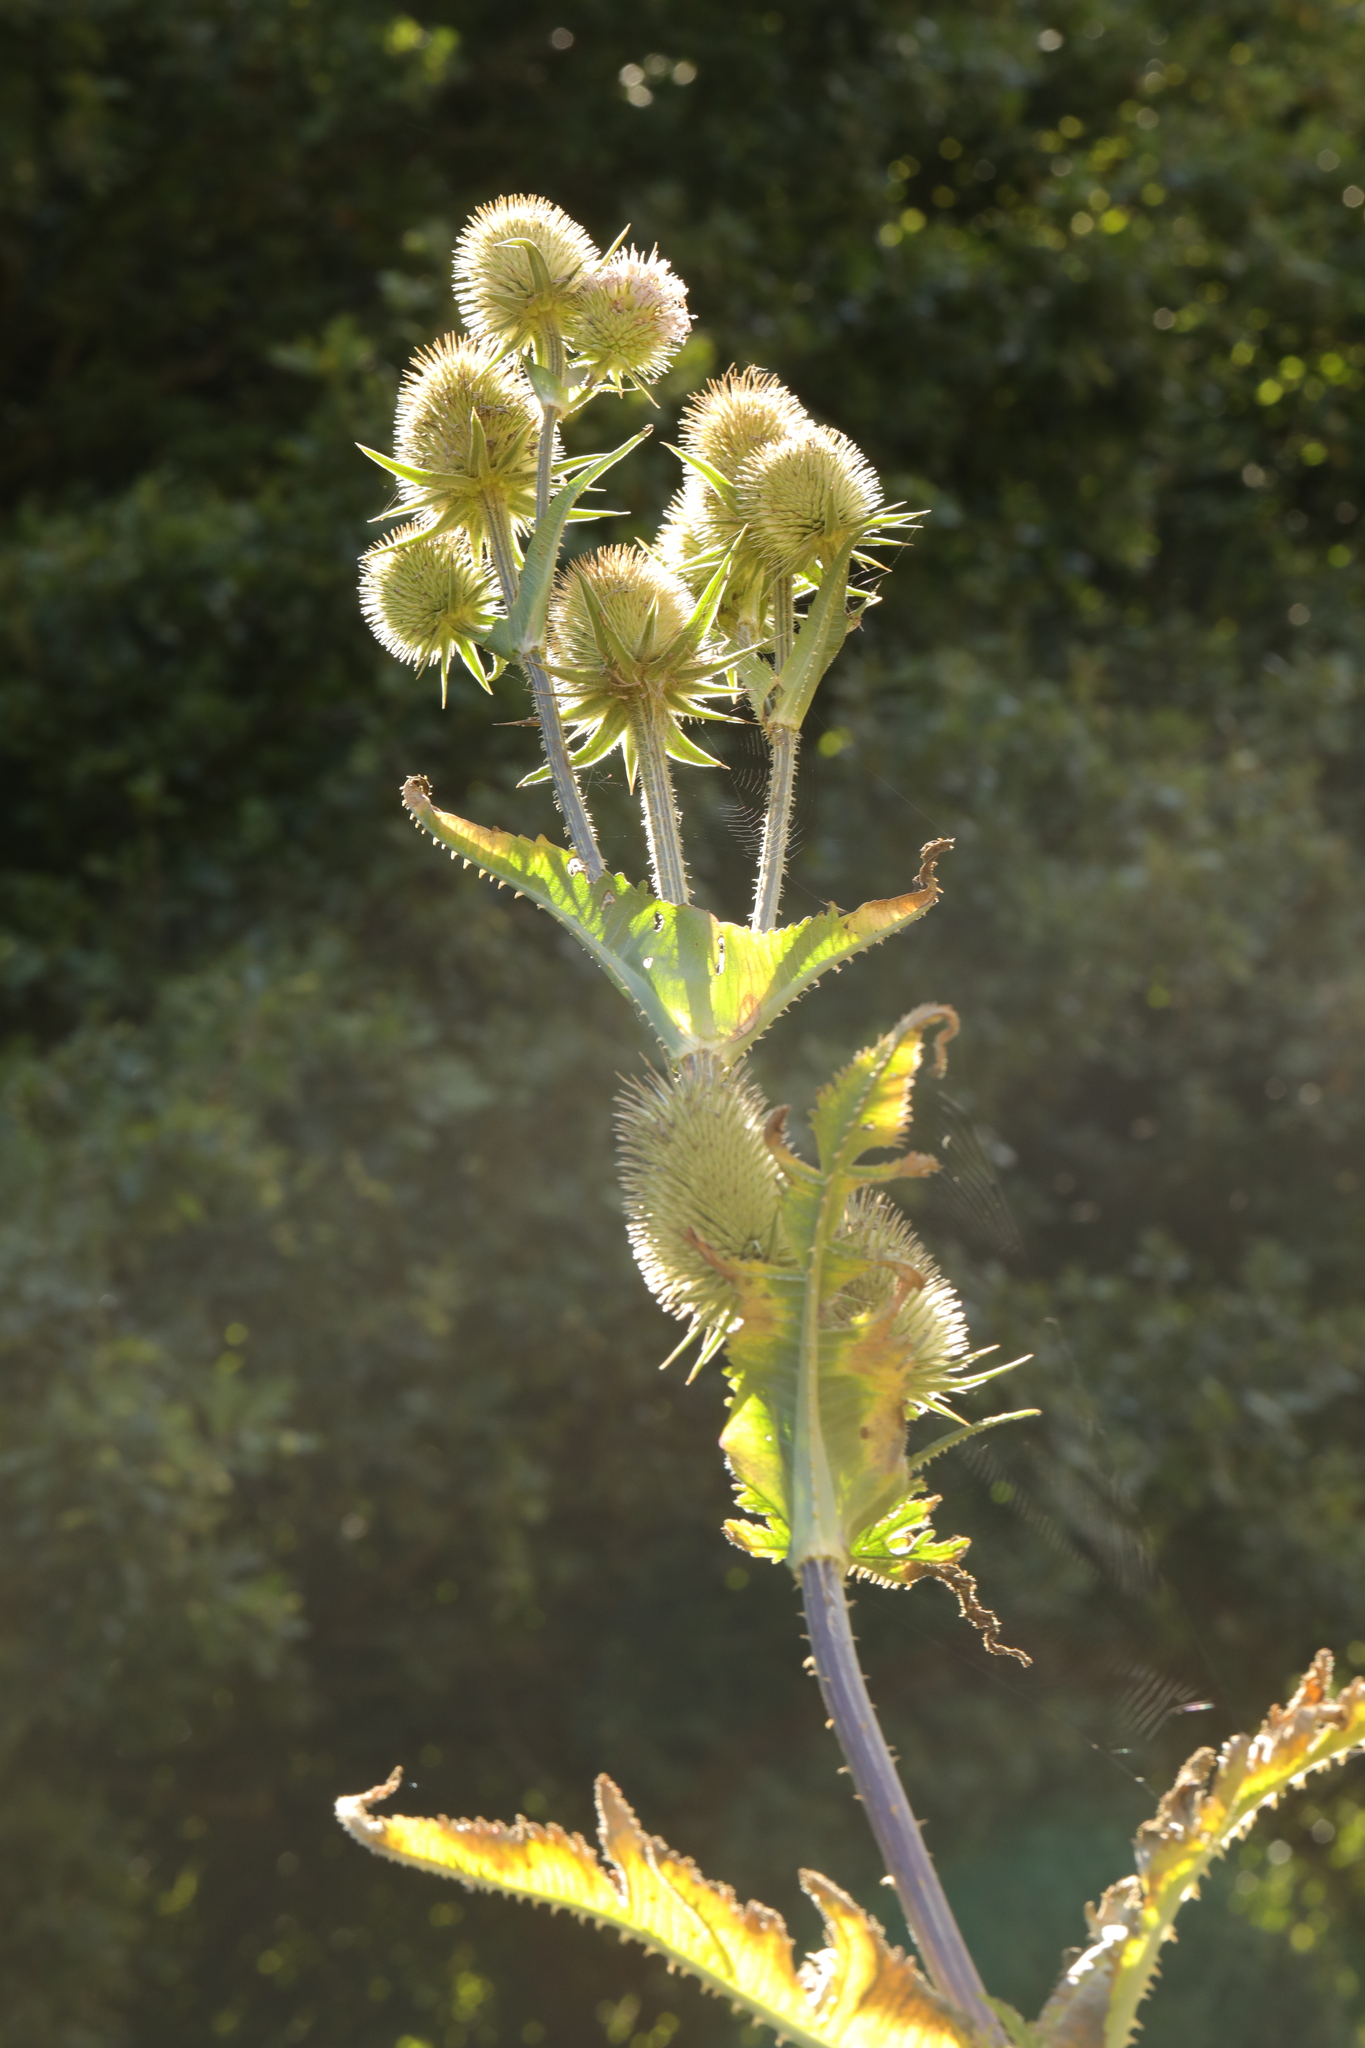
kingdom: Plantae
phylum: Tracheophyta
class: Magnoliopsida
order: Dipsacales
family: Caprifoliaceae
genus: Dipsacus
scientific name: Dipsacus laciniatus
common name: Cut-leaved teasel
